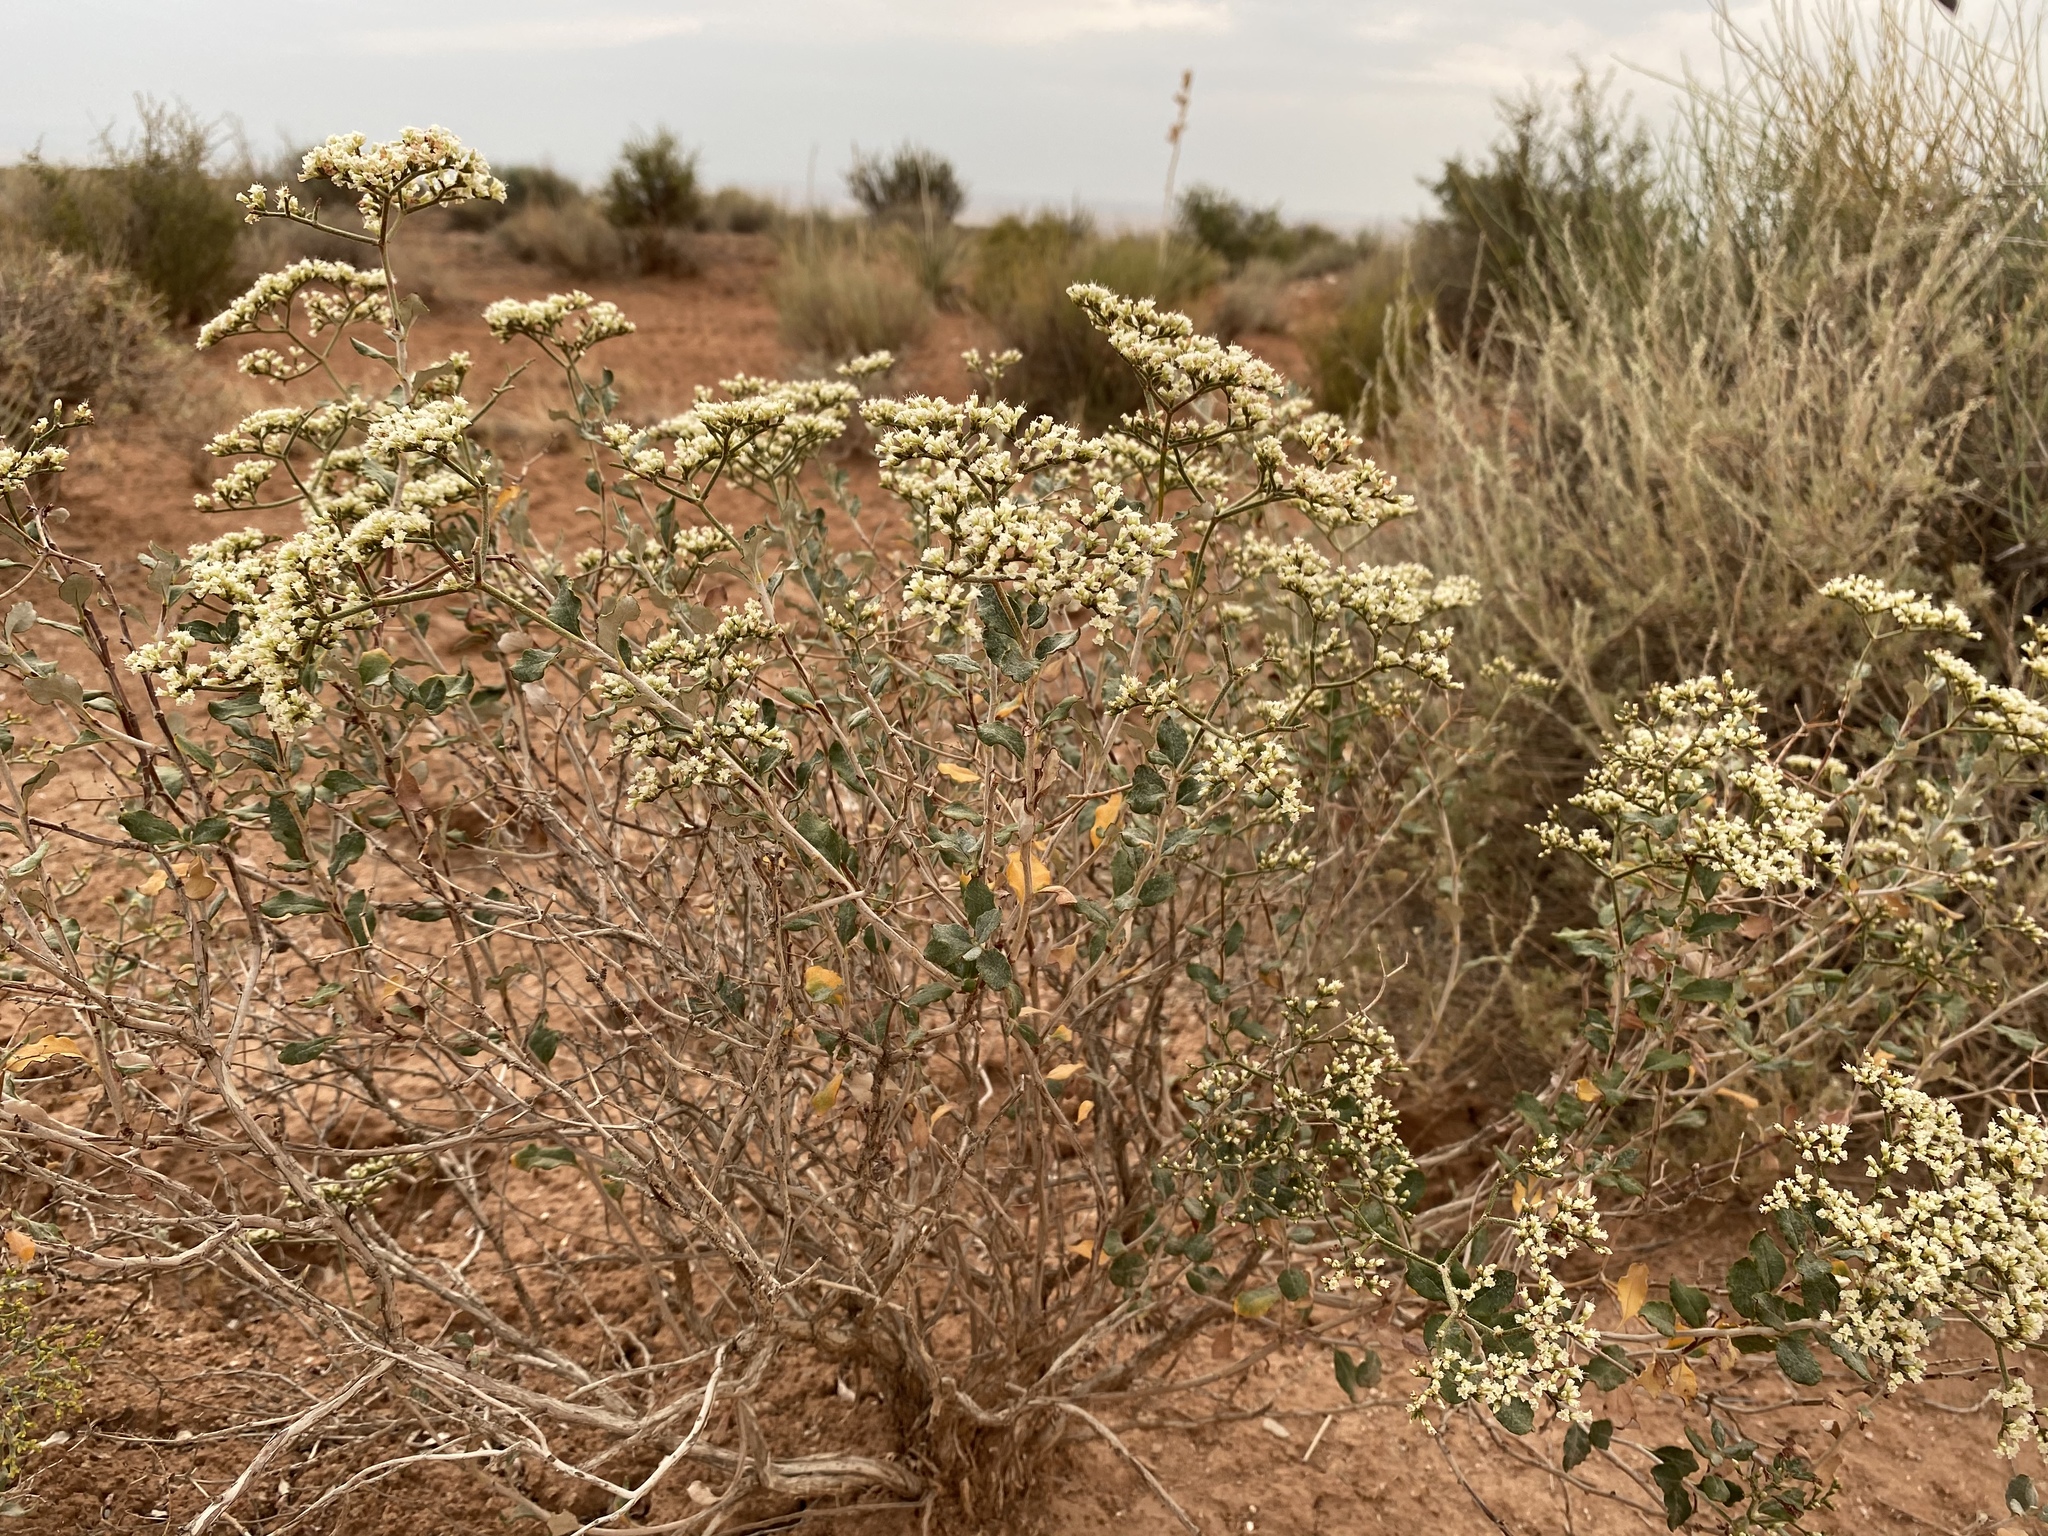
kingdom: Plantae
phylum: Tracheophyta
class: Magnoliopsida
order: Caryophyllales
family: Polygonaceae
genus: Eriogonum
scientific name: Eriogonum corymbosum
